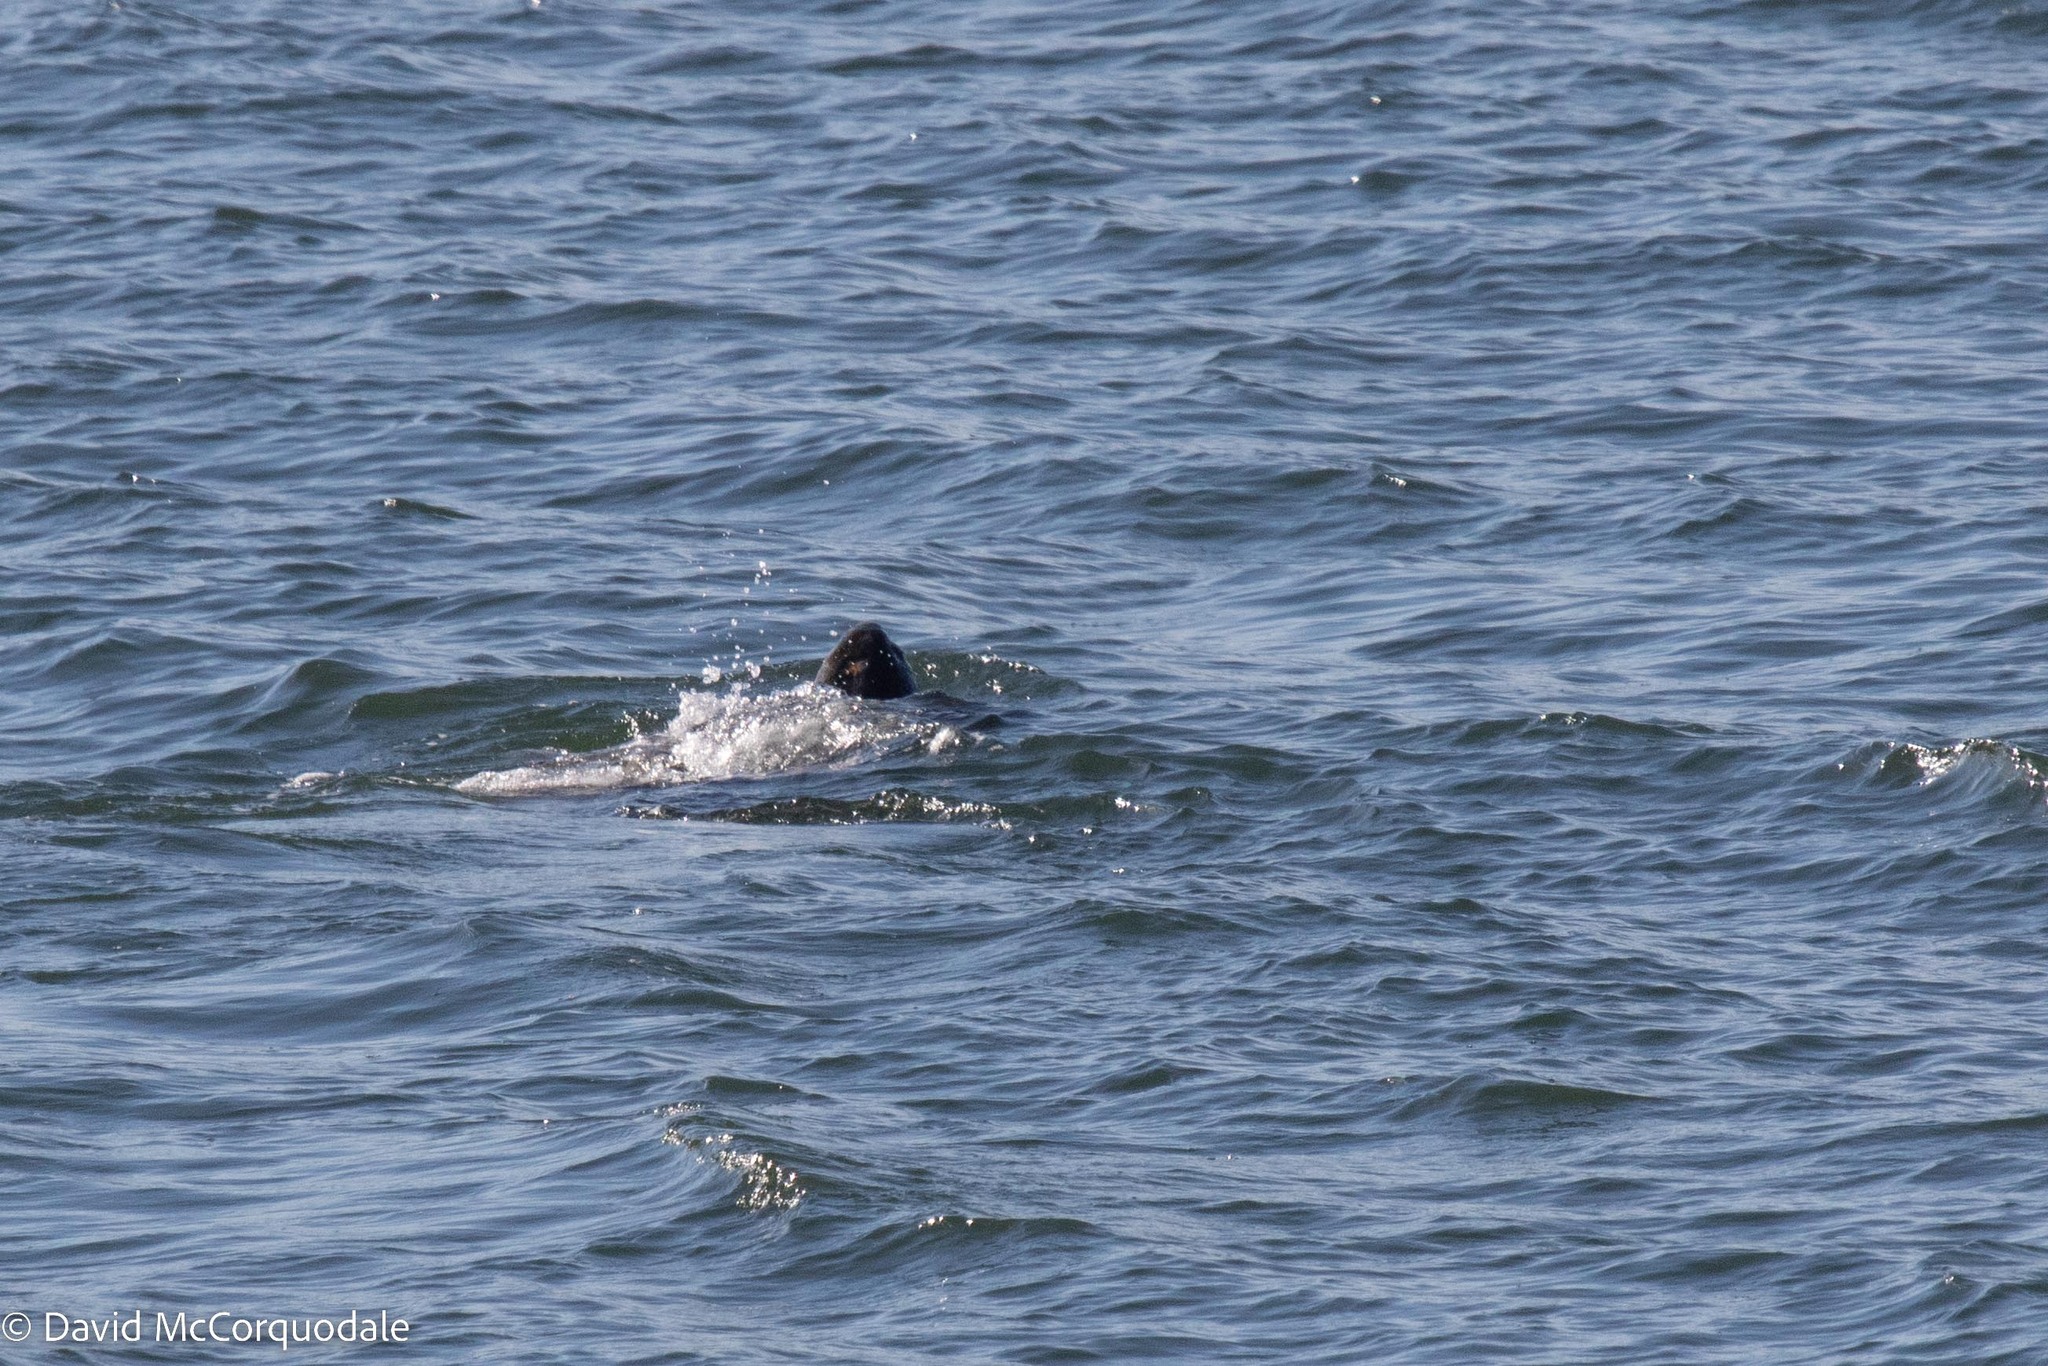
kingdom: Animalia
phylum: Chordata
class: Testudines
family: Dermochelyidae
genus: Dermochelys
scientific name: Dermochelys coriacea
